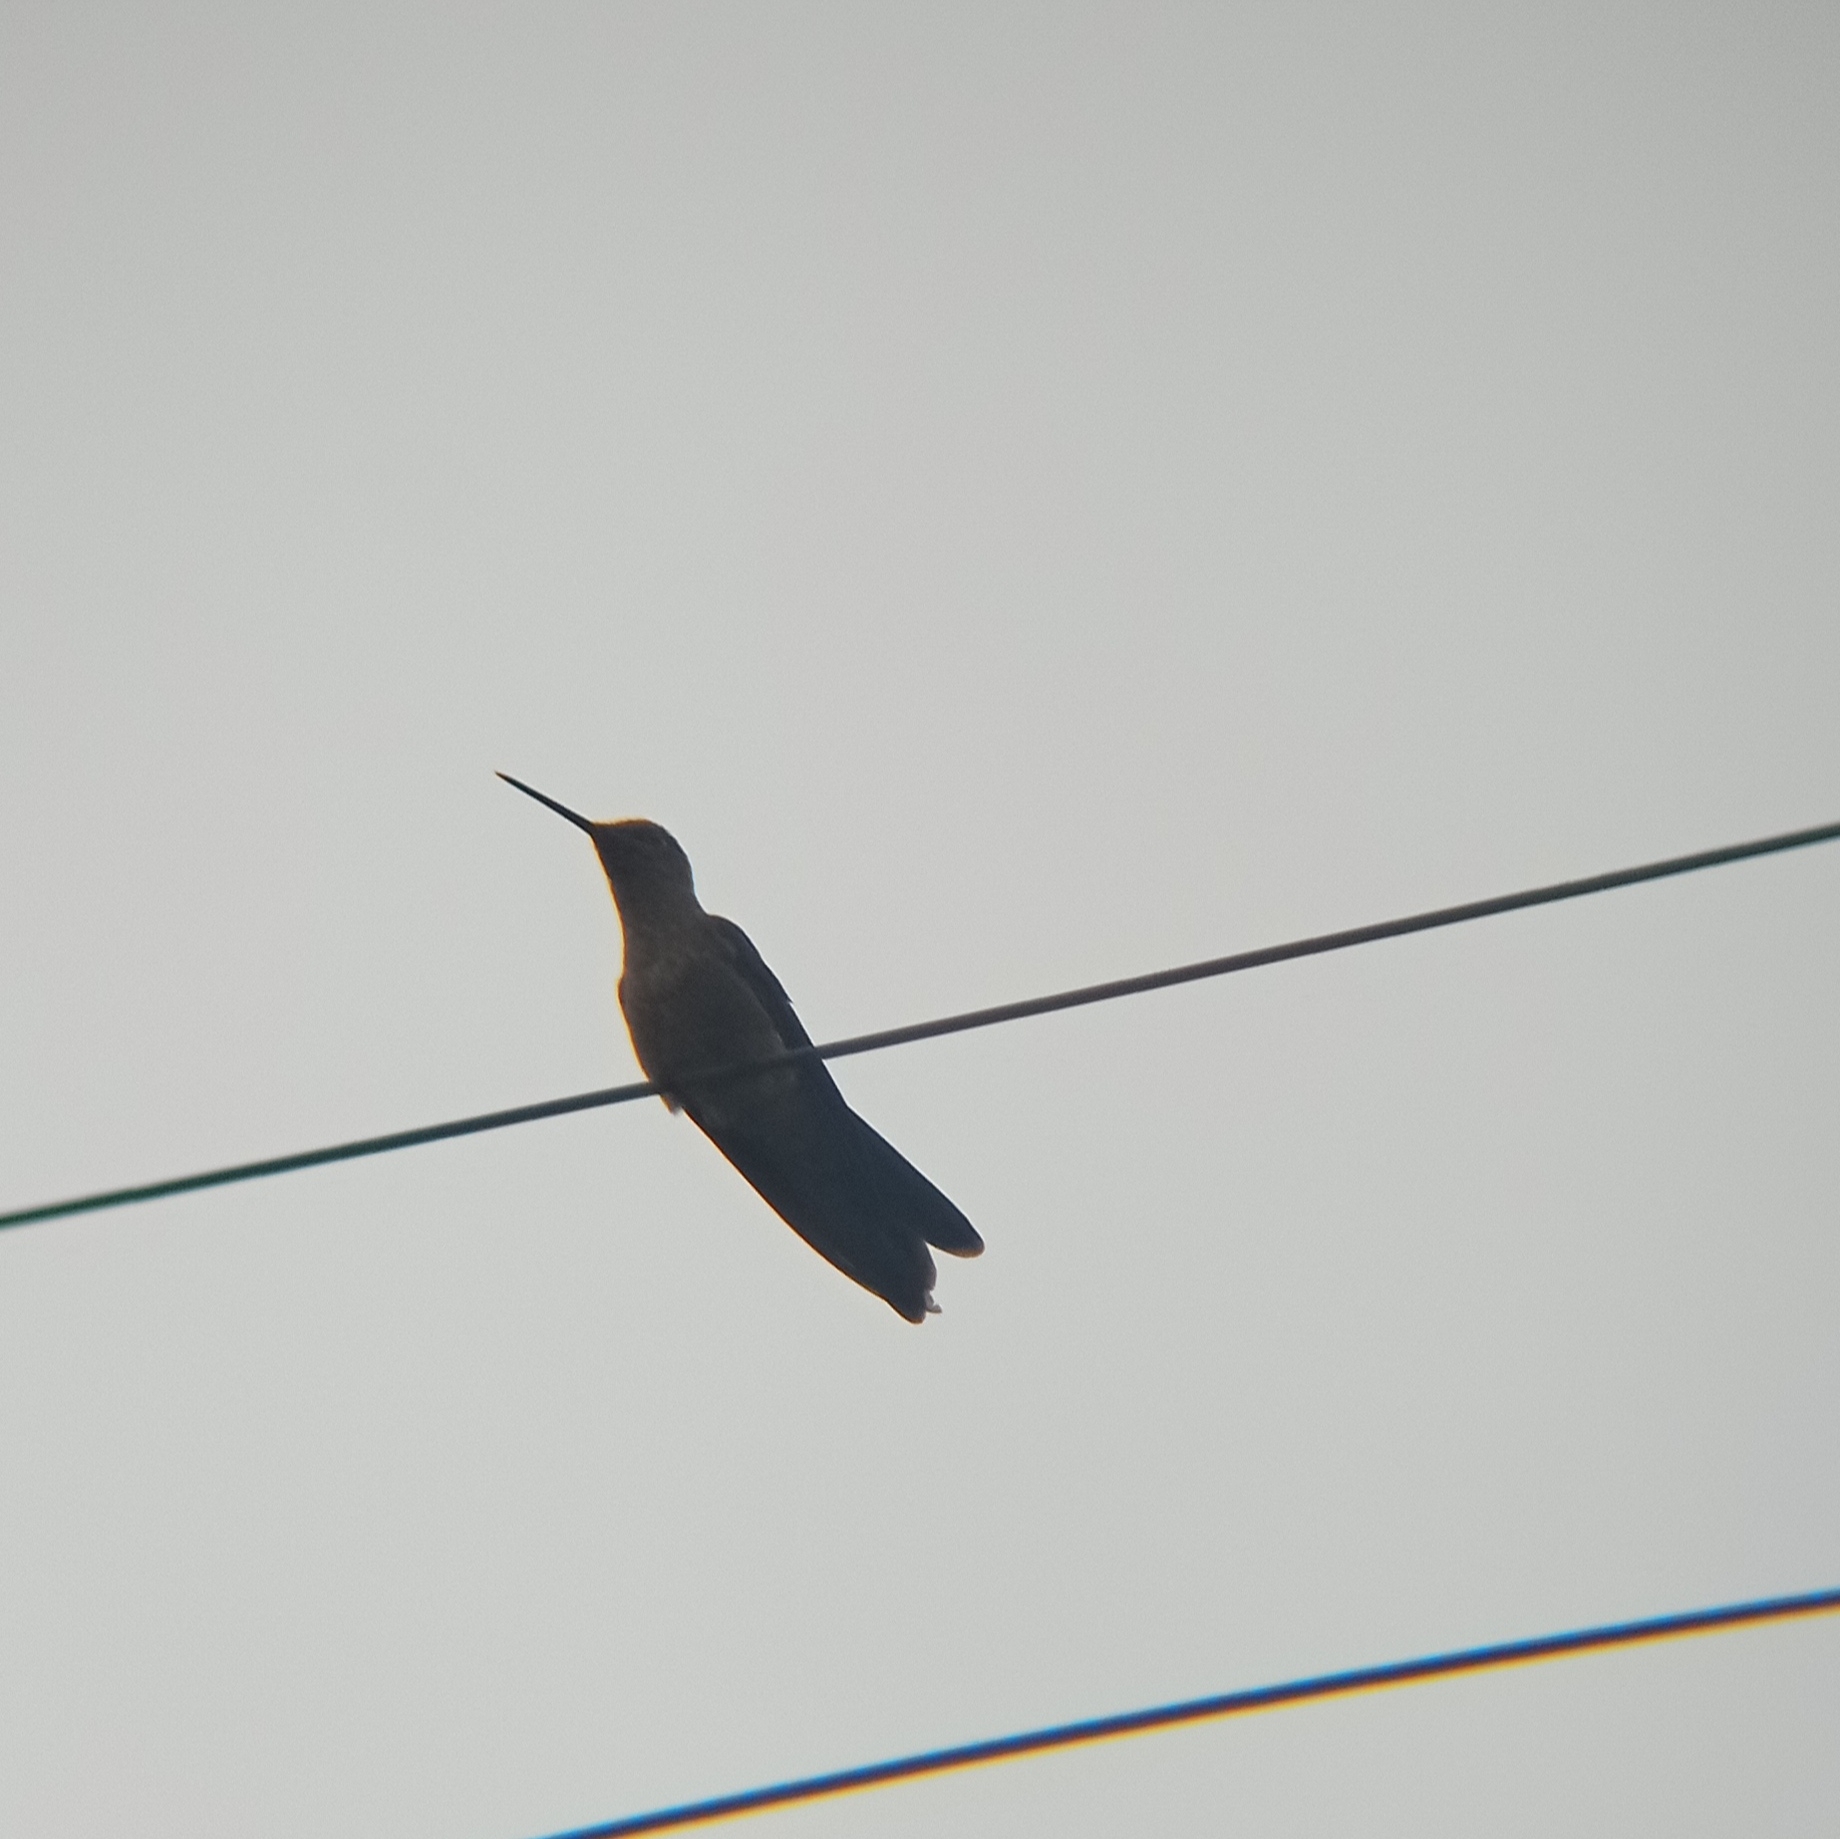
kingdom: Animalia
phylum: Chordata
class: Aves
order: Apodiformes
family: Trochilidae
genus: Patagona
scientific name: Patagona gigas
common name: Giant hummingbird
